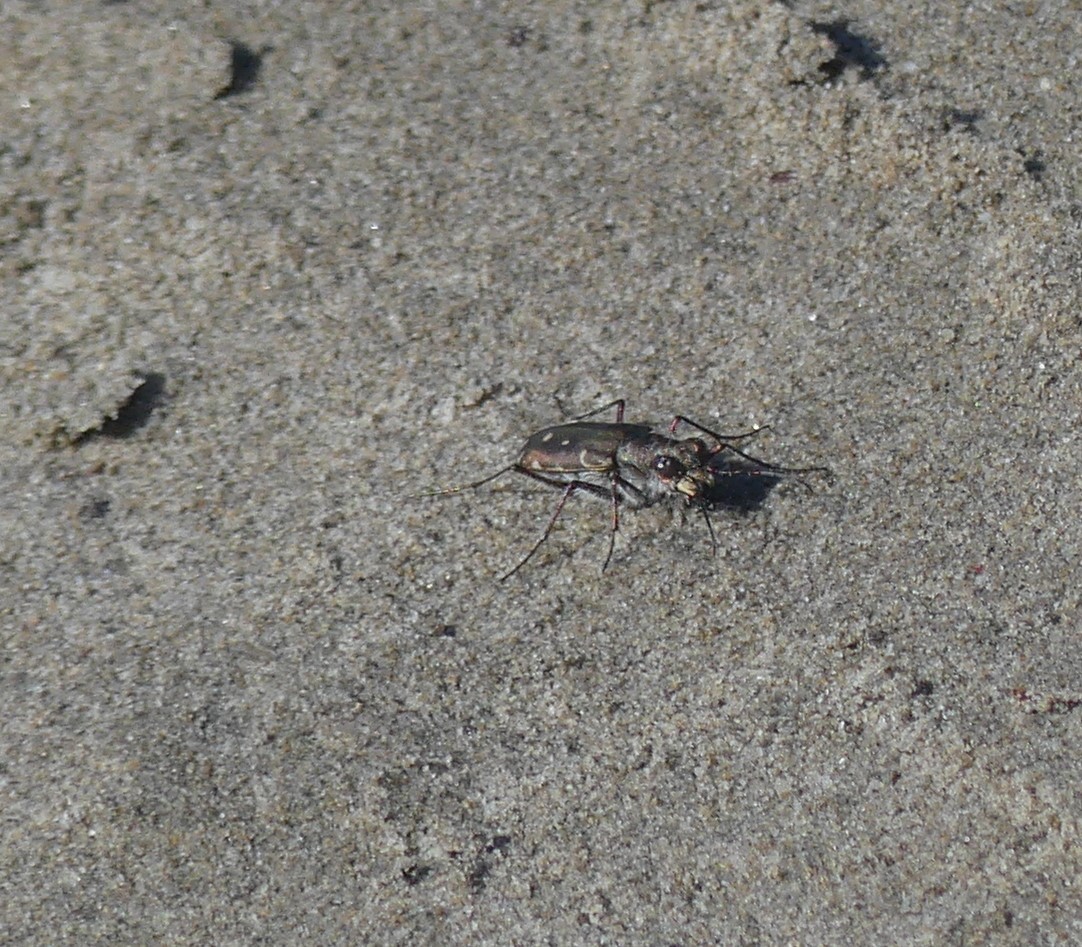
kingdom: Animalia
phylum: Arthropoda
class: Insecta
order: Coleoptera
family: Carabidae
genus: Cicindela
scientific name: Cicindela littoralis
